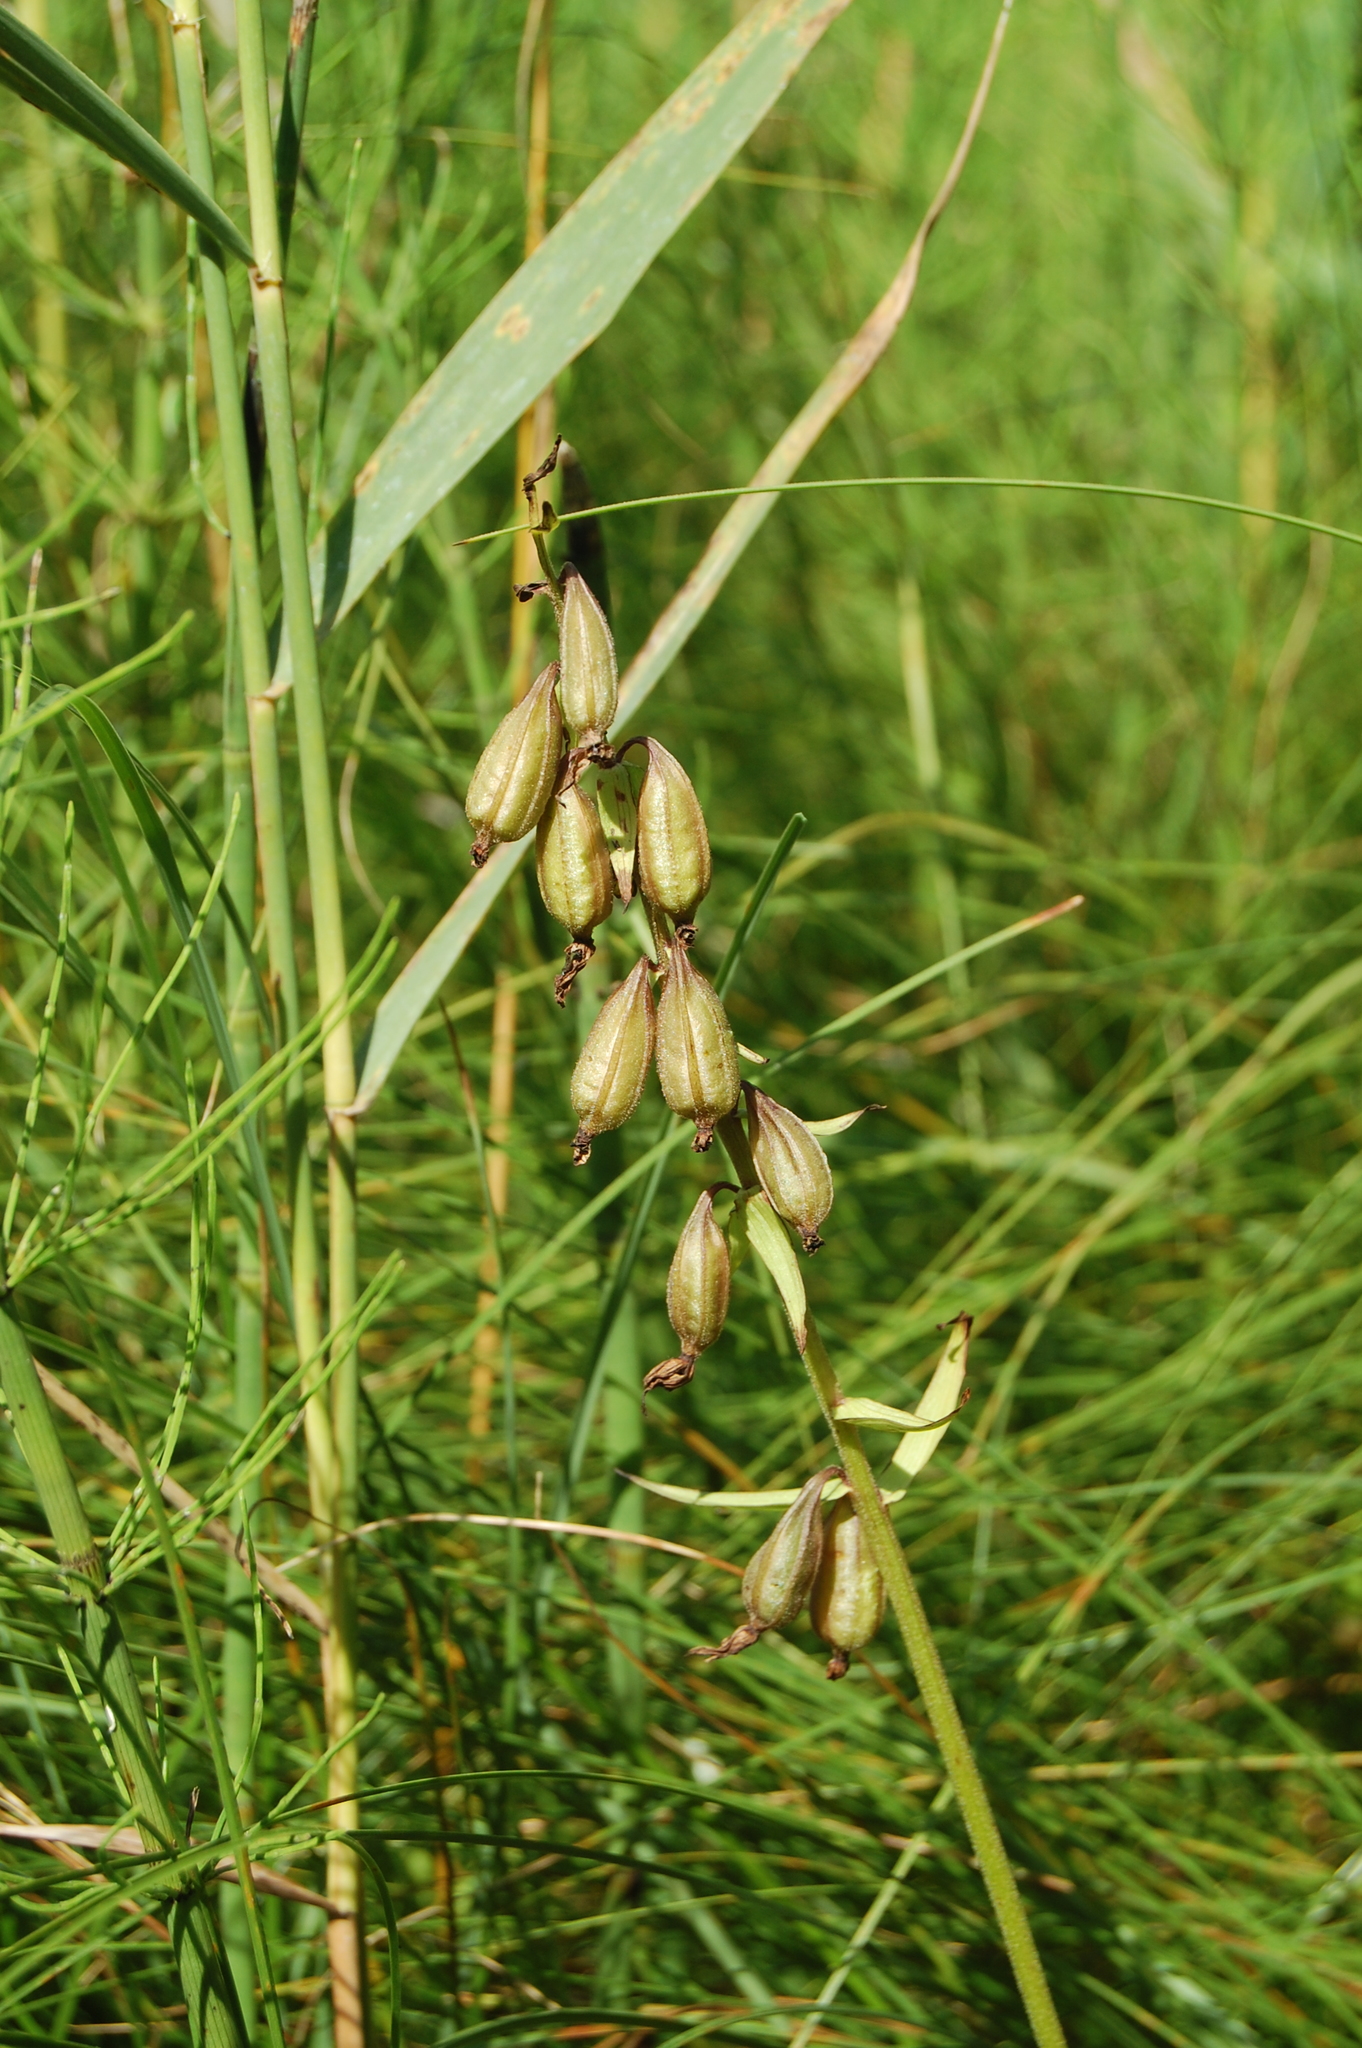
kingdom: Plantae
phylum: Tracheophyta
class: Liliopsida
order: Asparagales
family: Orchidaceae
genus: Epipactis
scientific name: Epipactis palustris
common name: Marsh helleborine
